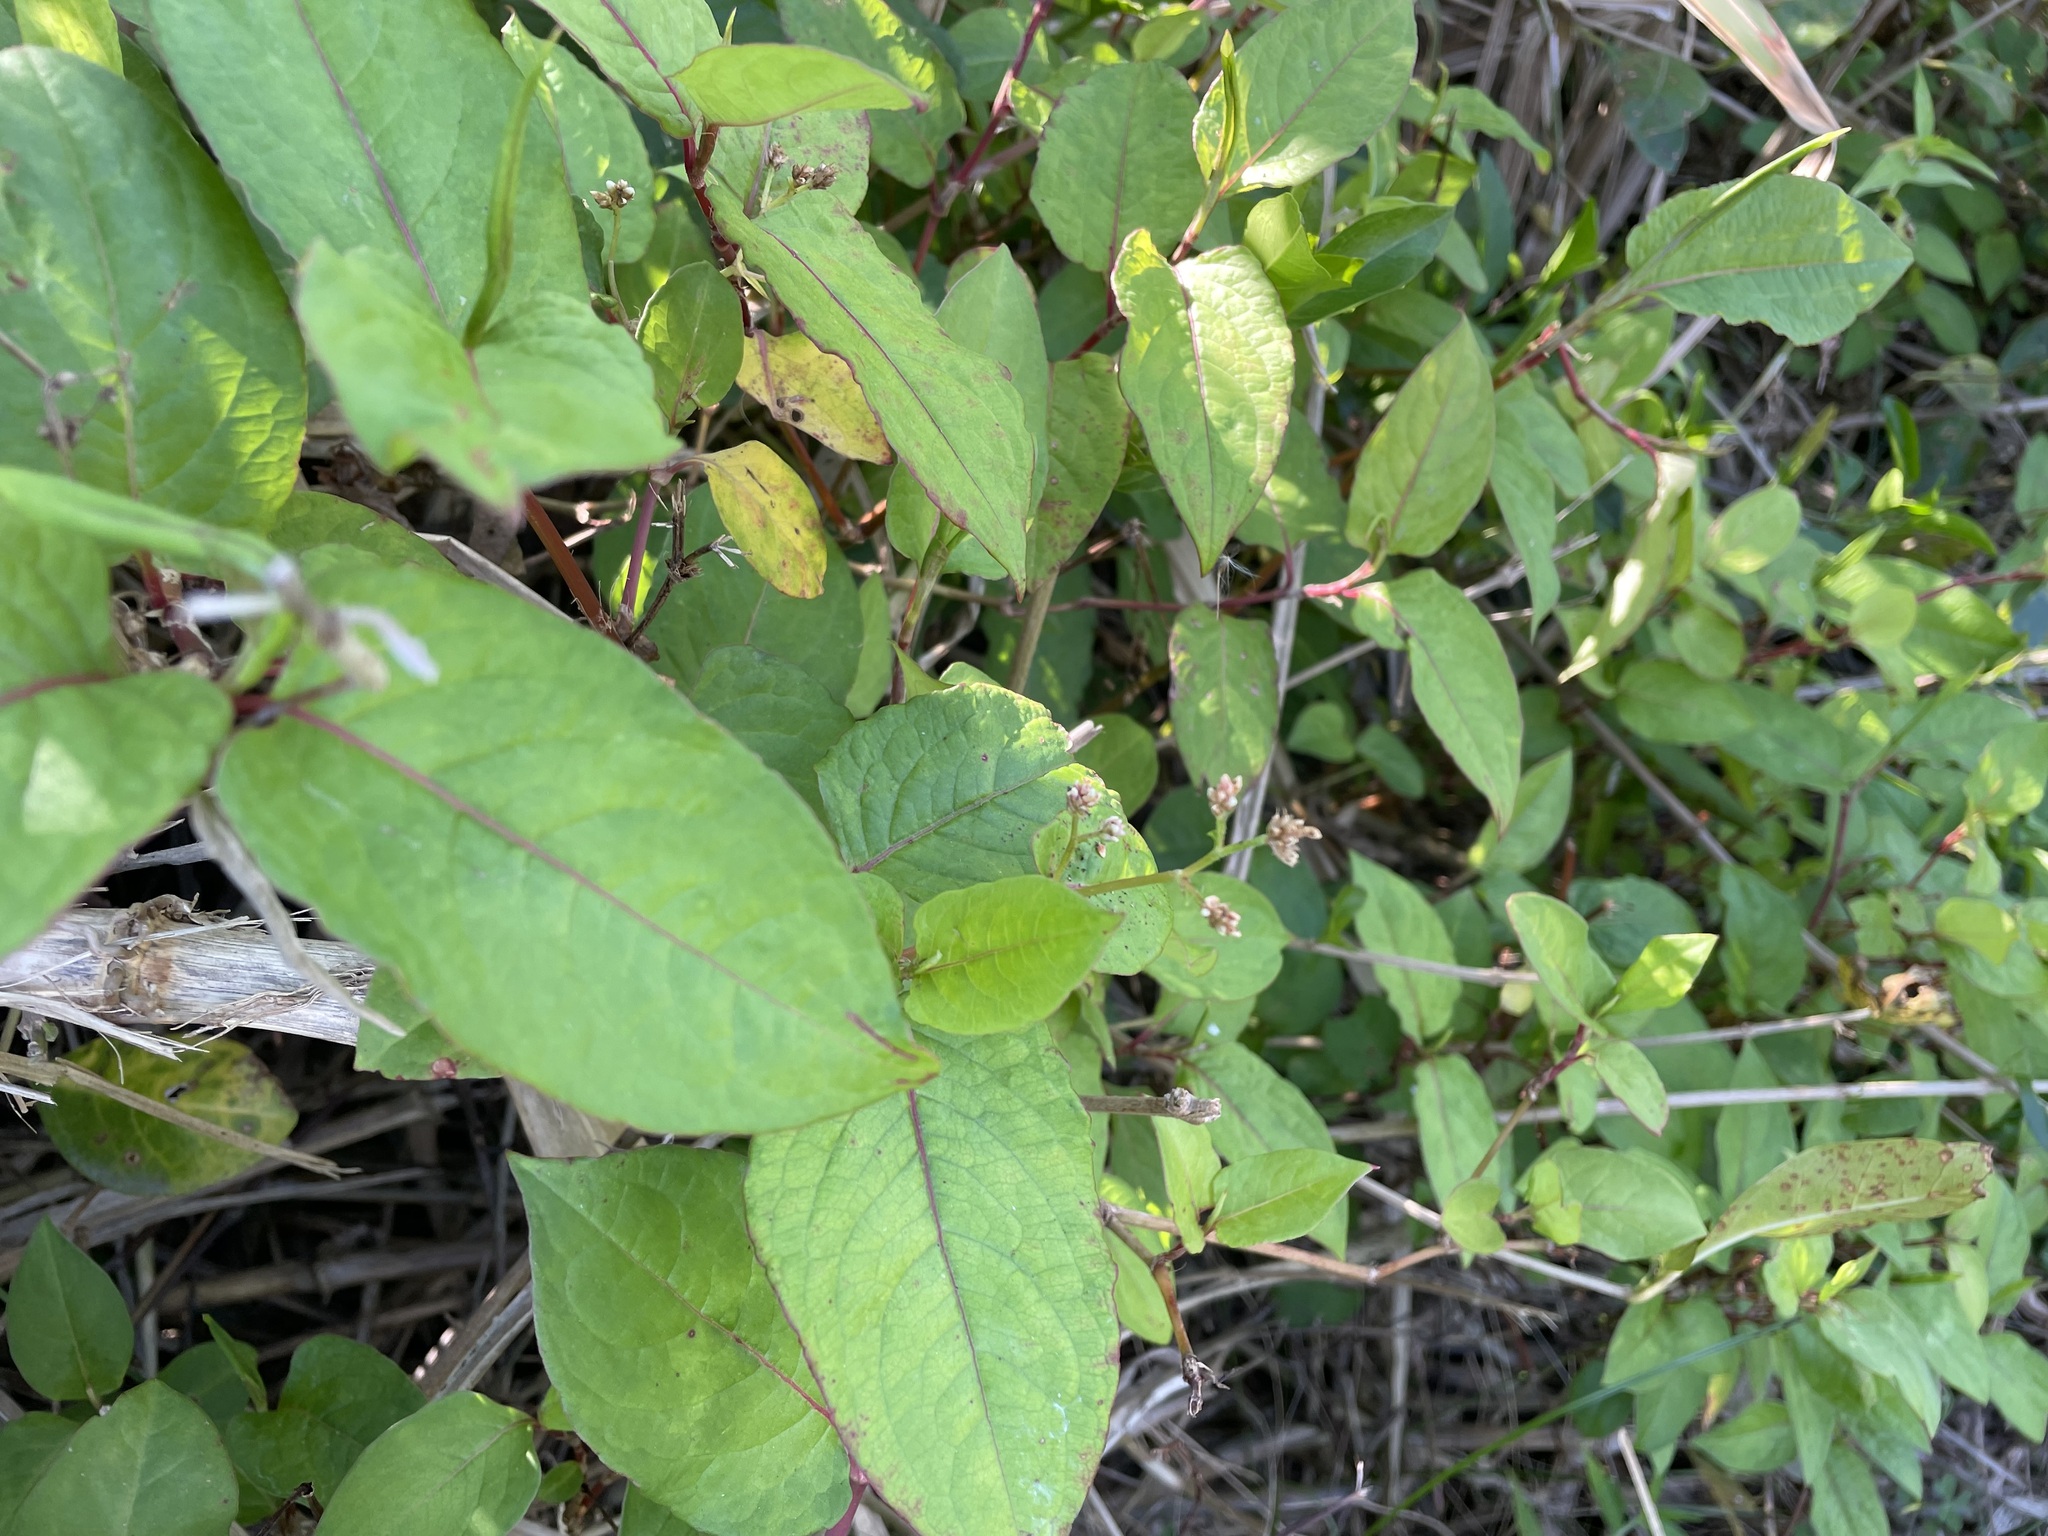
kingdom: Plantae
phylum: Tracheophyta
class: Magnoliopsida
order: Caryophyllales
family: Polygonaceae
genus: Persicaria
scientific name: Persicaria chinensis
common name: Chinese knotweed
